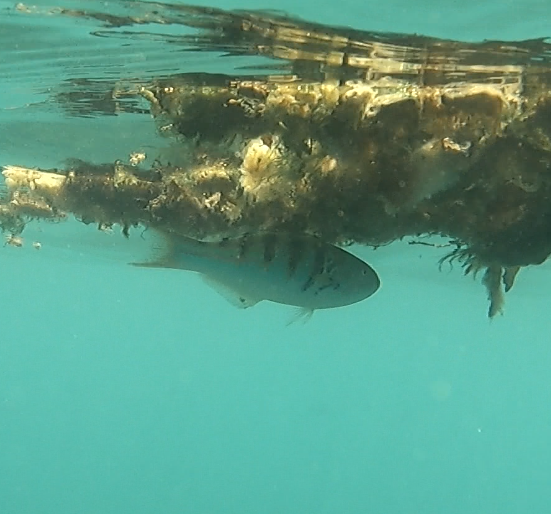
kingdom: Animalia
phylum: Chordata
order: Perciformes
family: Labridae
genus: Thalassoma
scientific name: Thalassoma hardwicke
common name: Sixbar wrasse
